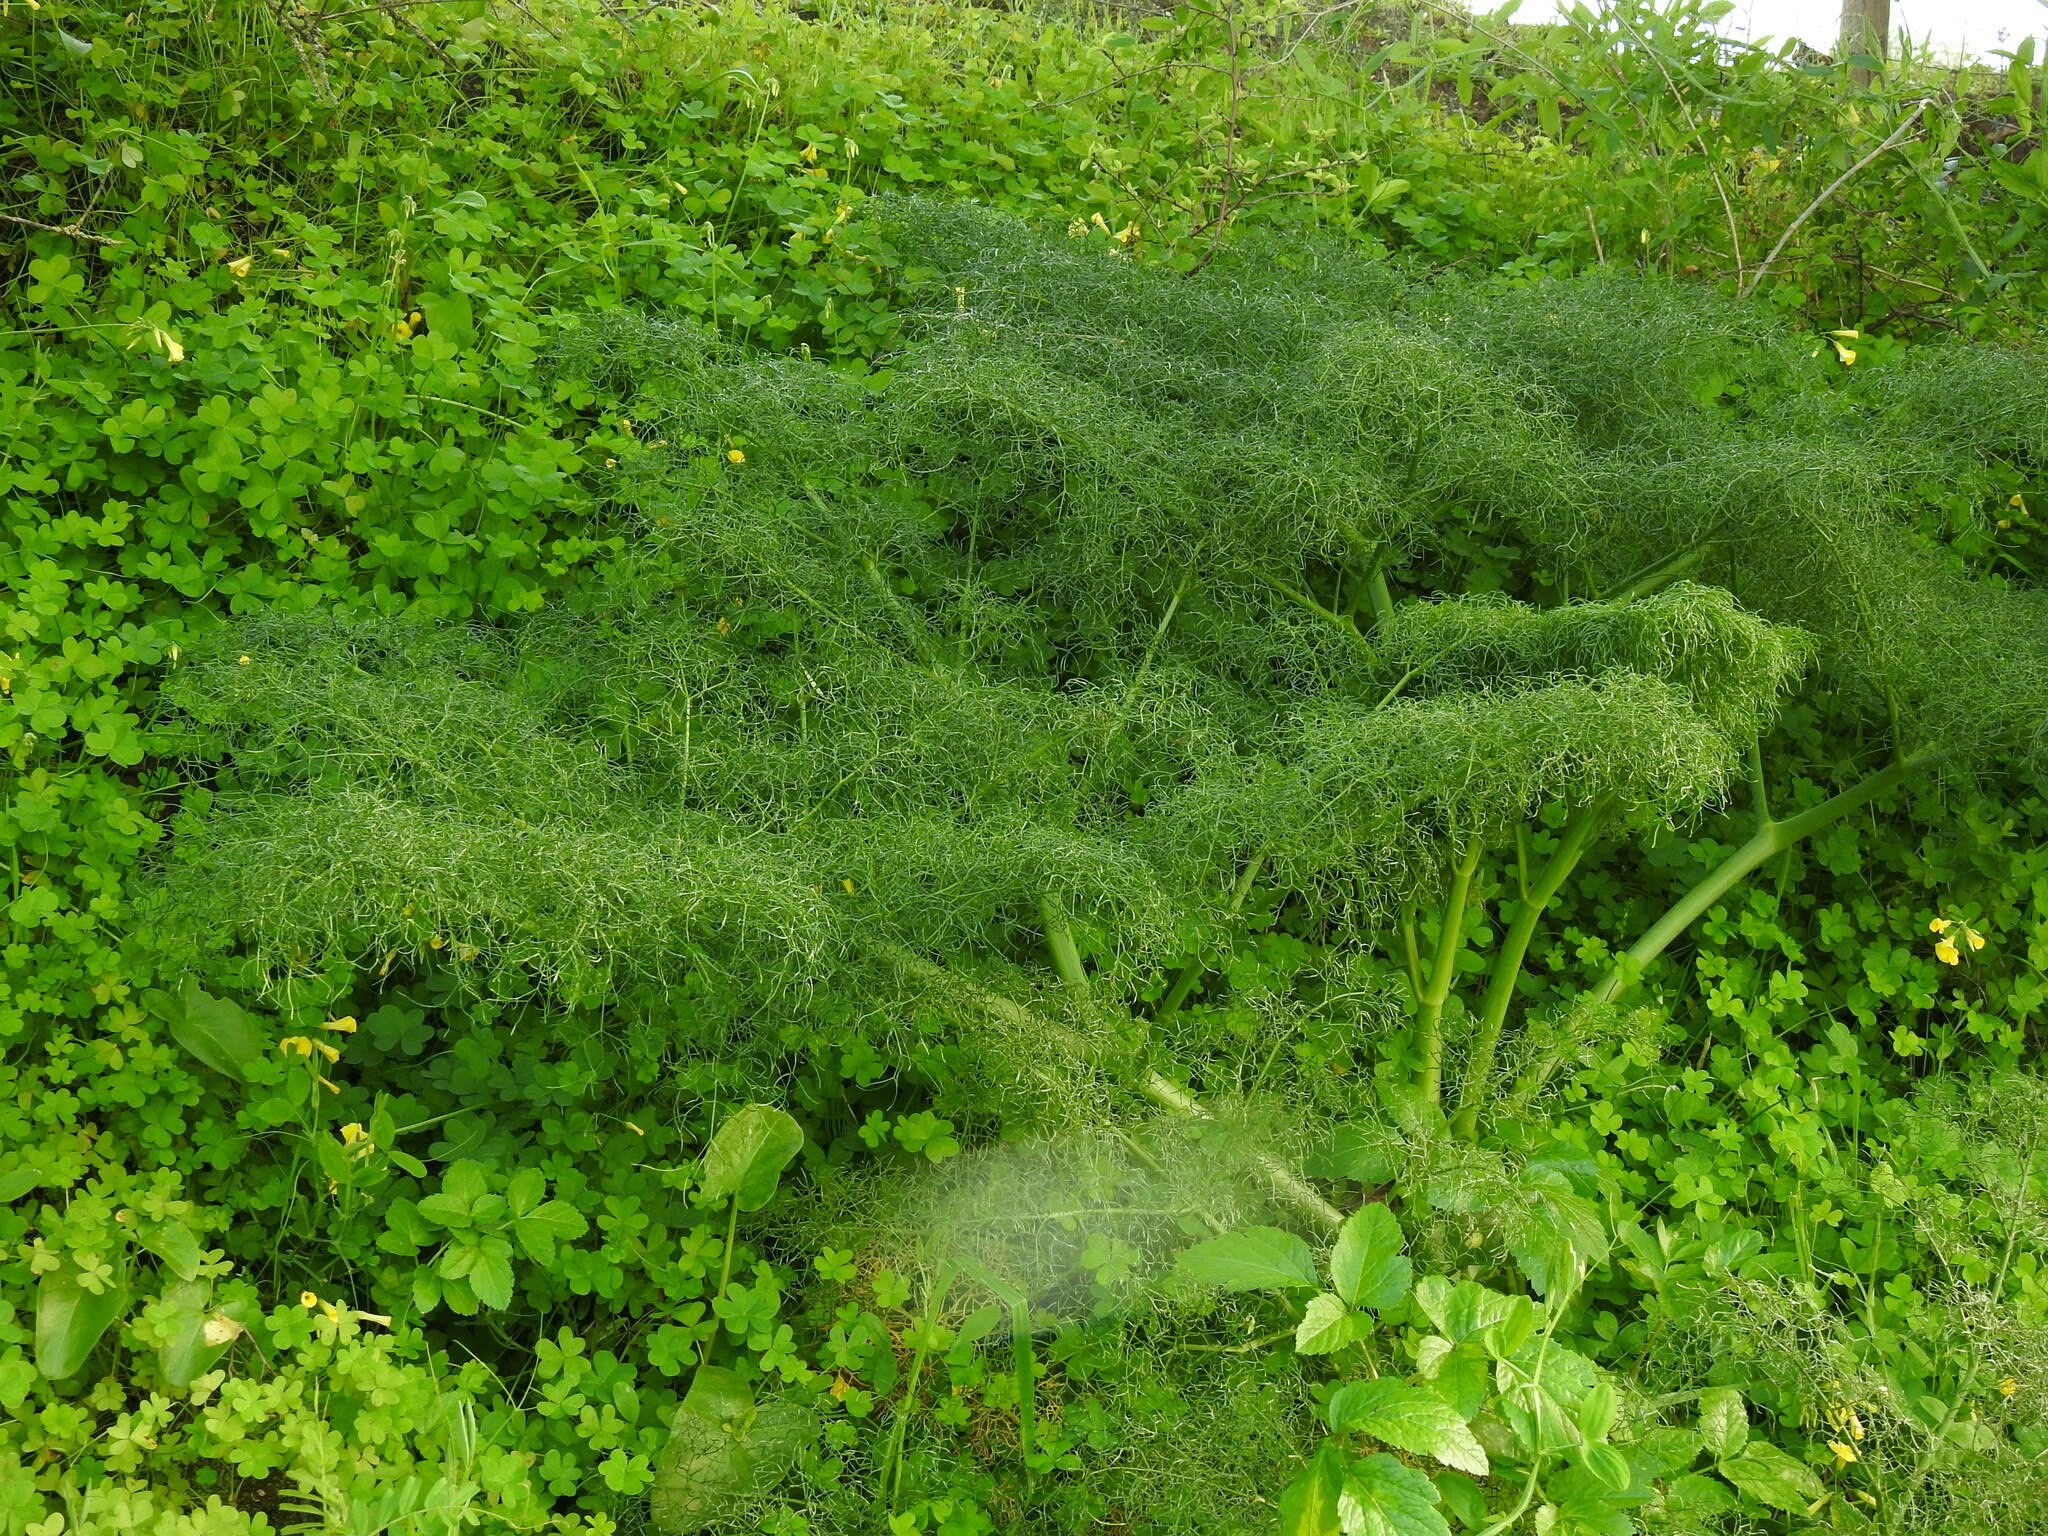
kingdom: Plantae
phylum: Tracheophyta
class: Magnoliopsida
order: Apiales
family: Apiaceae
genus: Ferula
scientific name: Ferula communis
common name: Giant fennel
